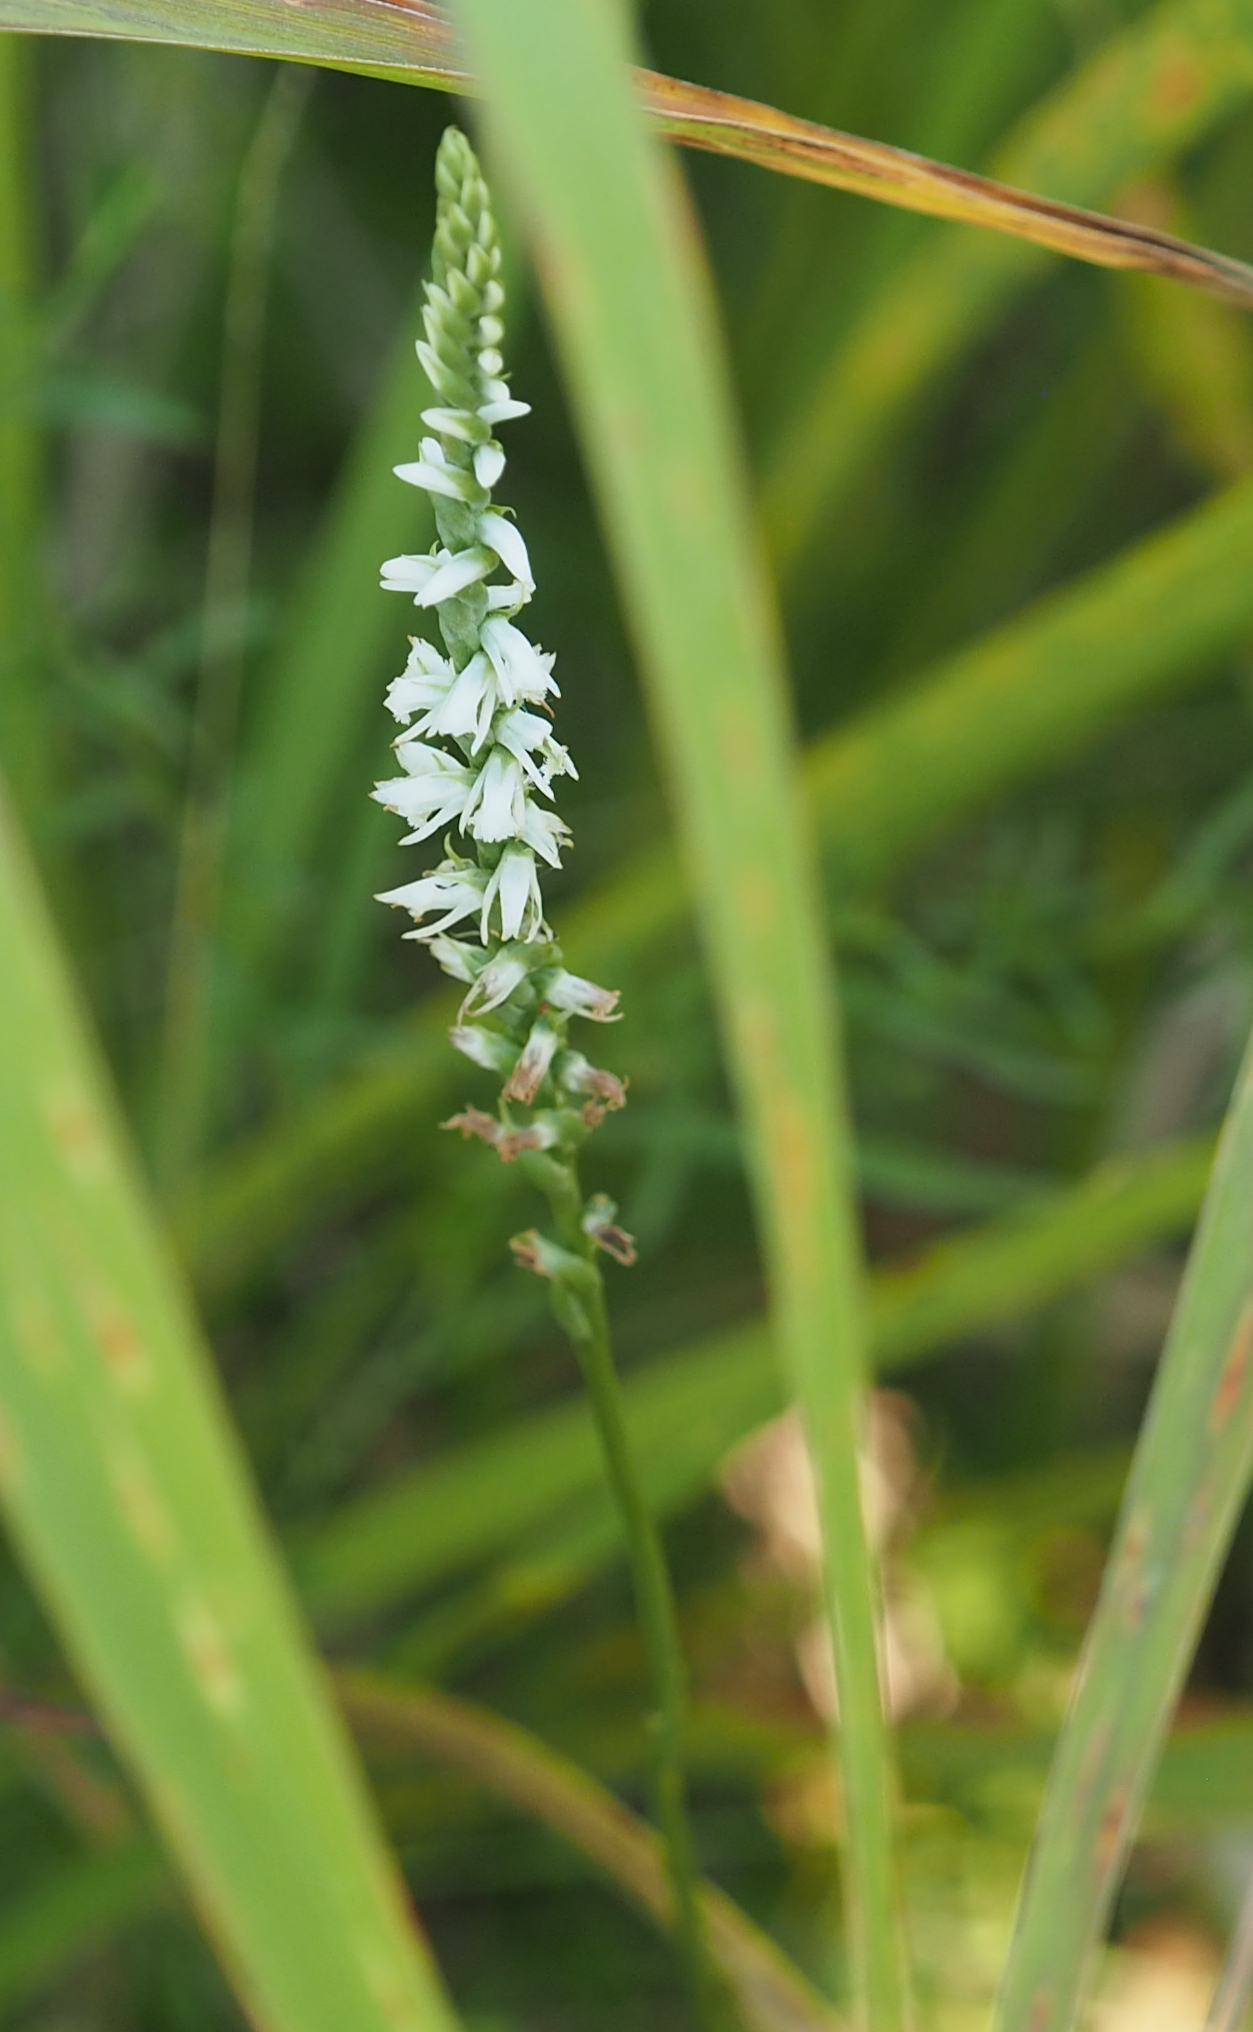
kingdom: Plantae
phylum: Tracheophyta
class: Liliopsida
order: Asparagales
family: Orchidaceae
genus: Spiranthes
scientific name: Spiranthes lacera
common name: Northern slender ladies'-tresses
